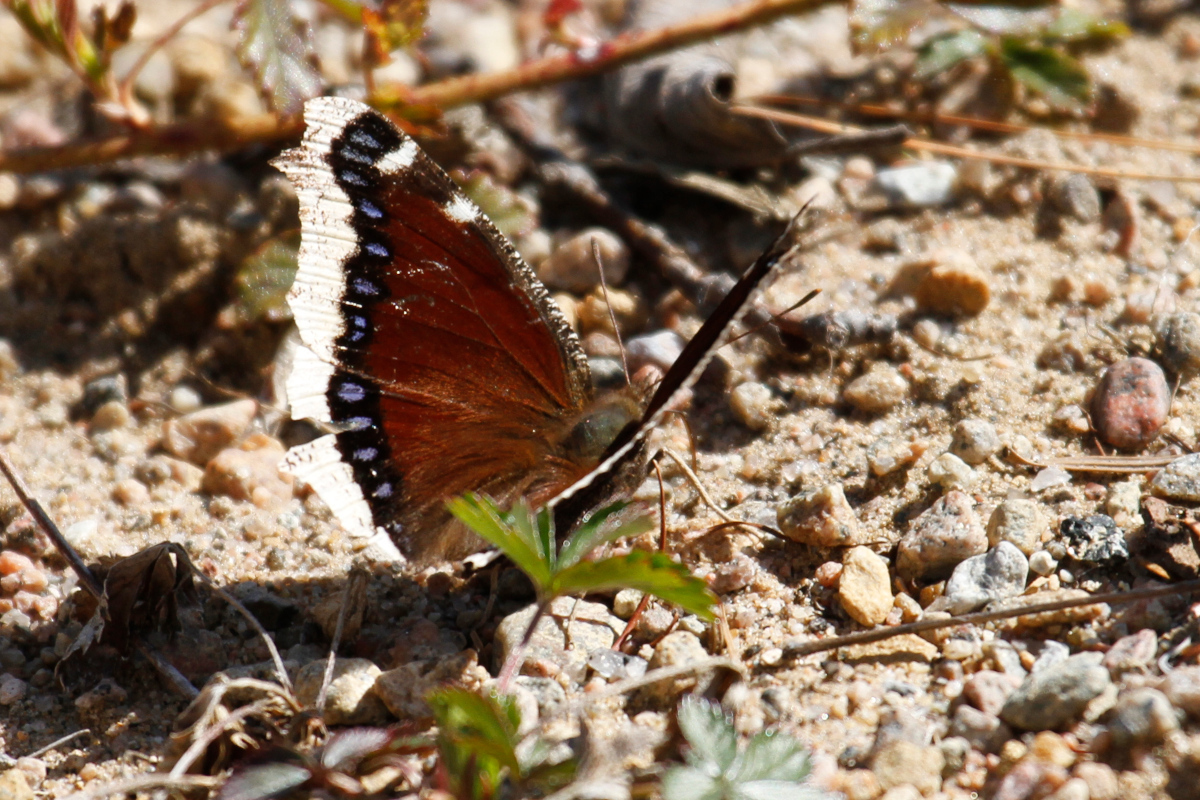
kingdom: Animalia
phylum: Arthropoda
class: Insecta
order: Lepidoptera
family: Nymphalidae
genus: Nymphalis
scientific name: Nymphalis antiopa
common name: Camberwell beauty
